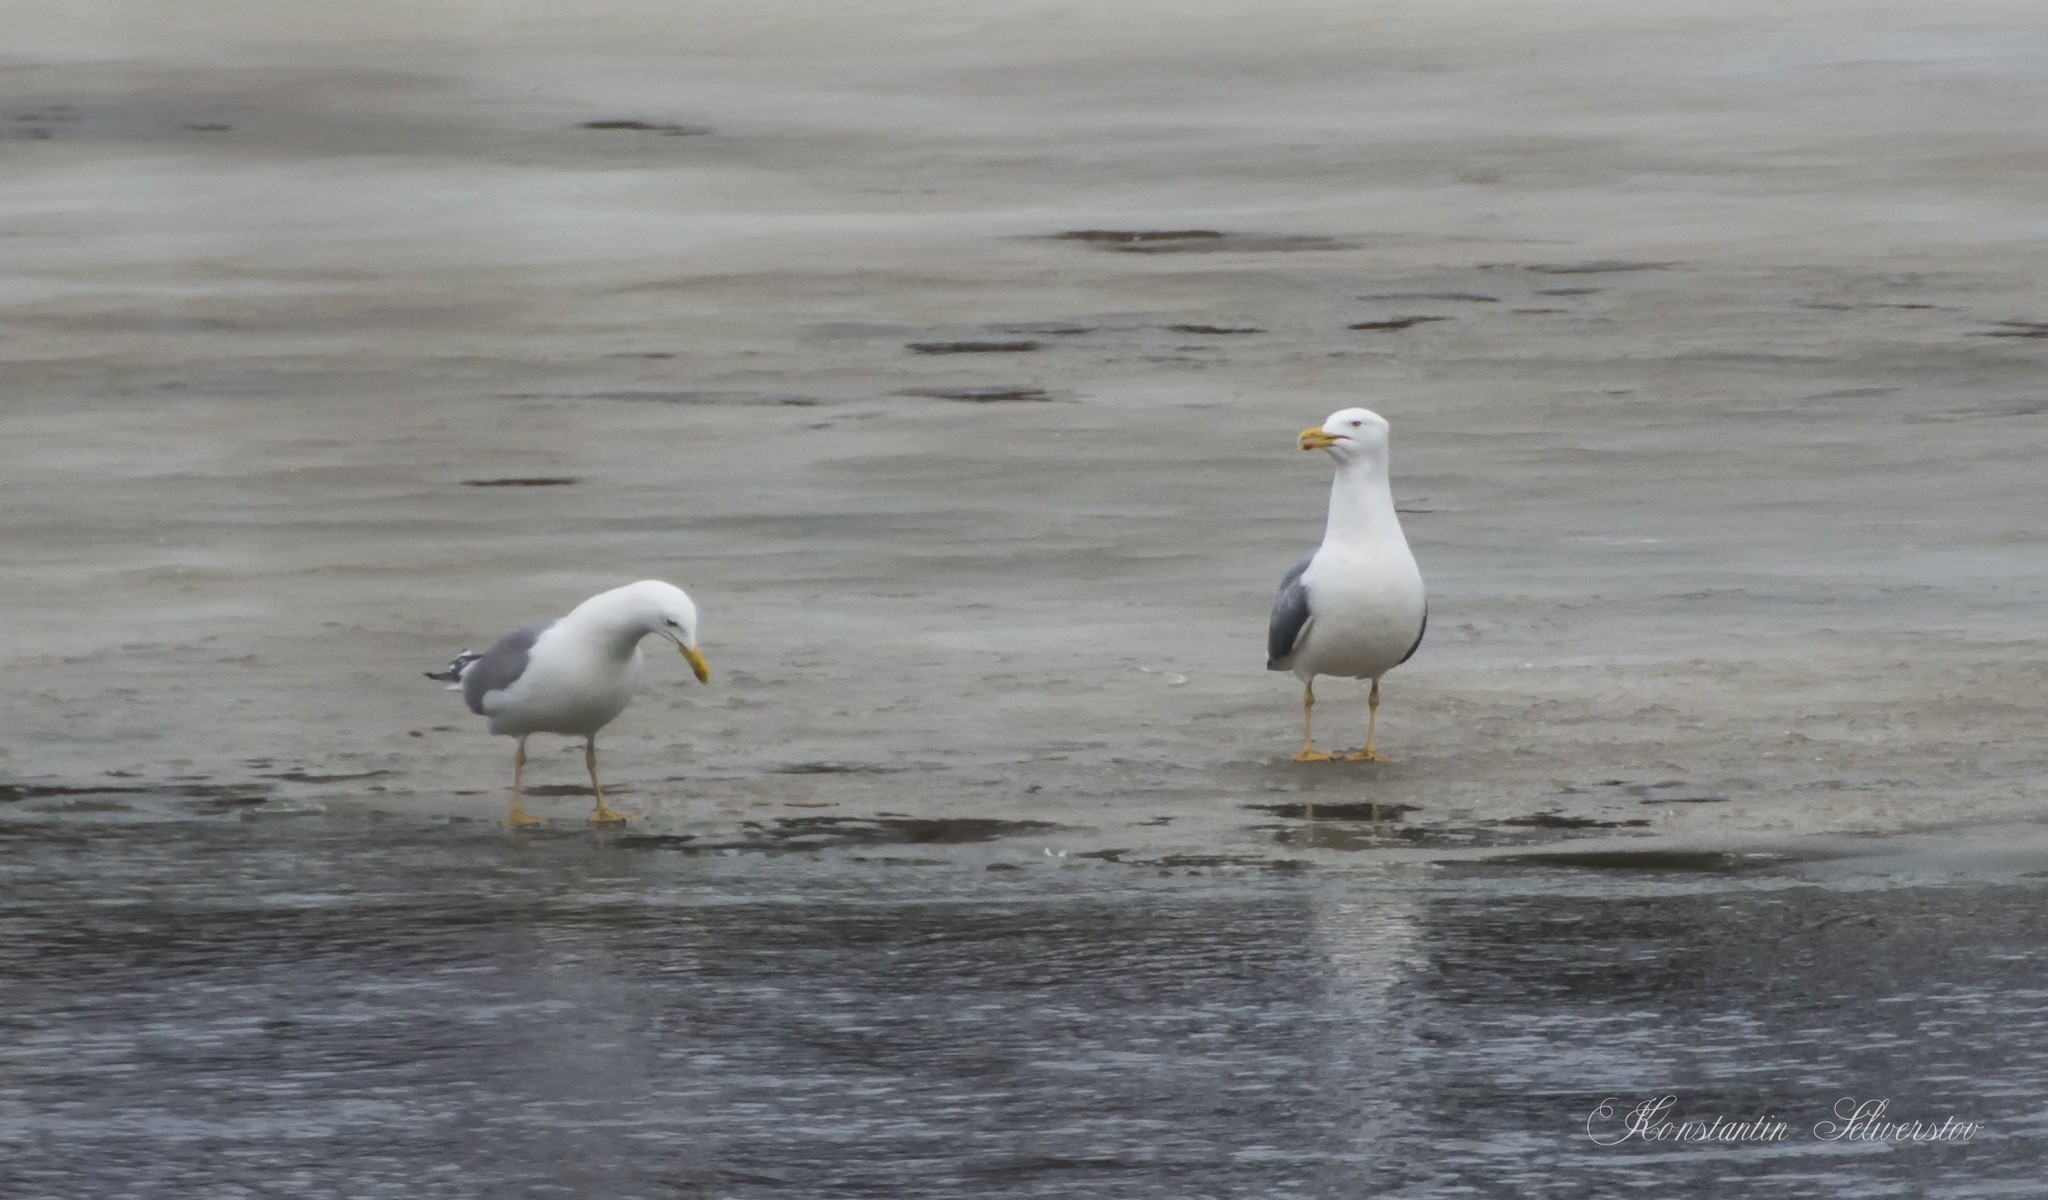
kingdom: Animalia
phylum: Chordata
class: Aves
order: Charadriiformes
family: Laridae
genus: Larus
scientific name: Larus cachinnans
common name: Caspian gull
